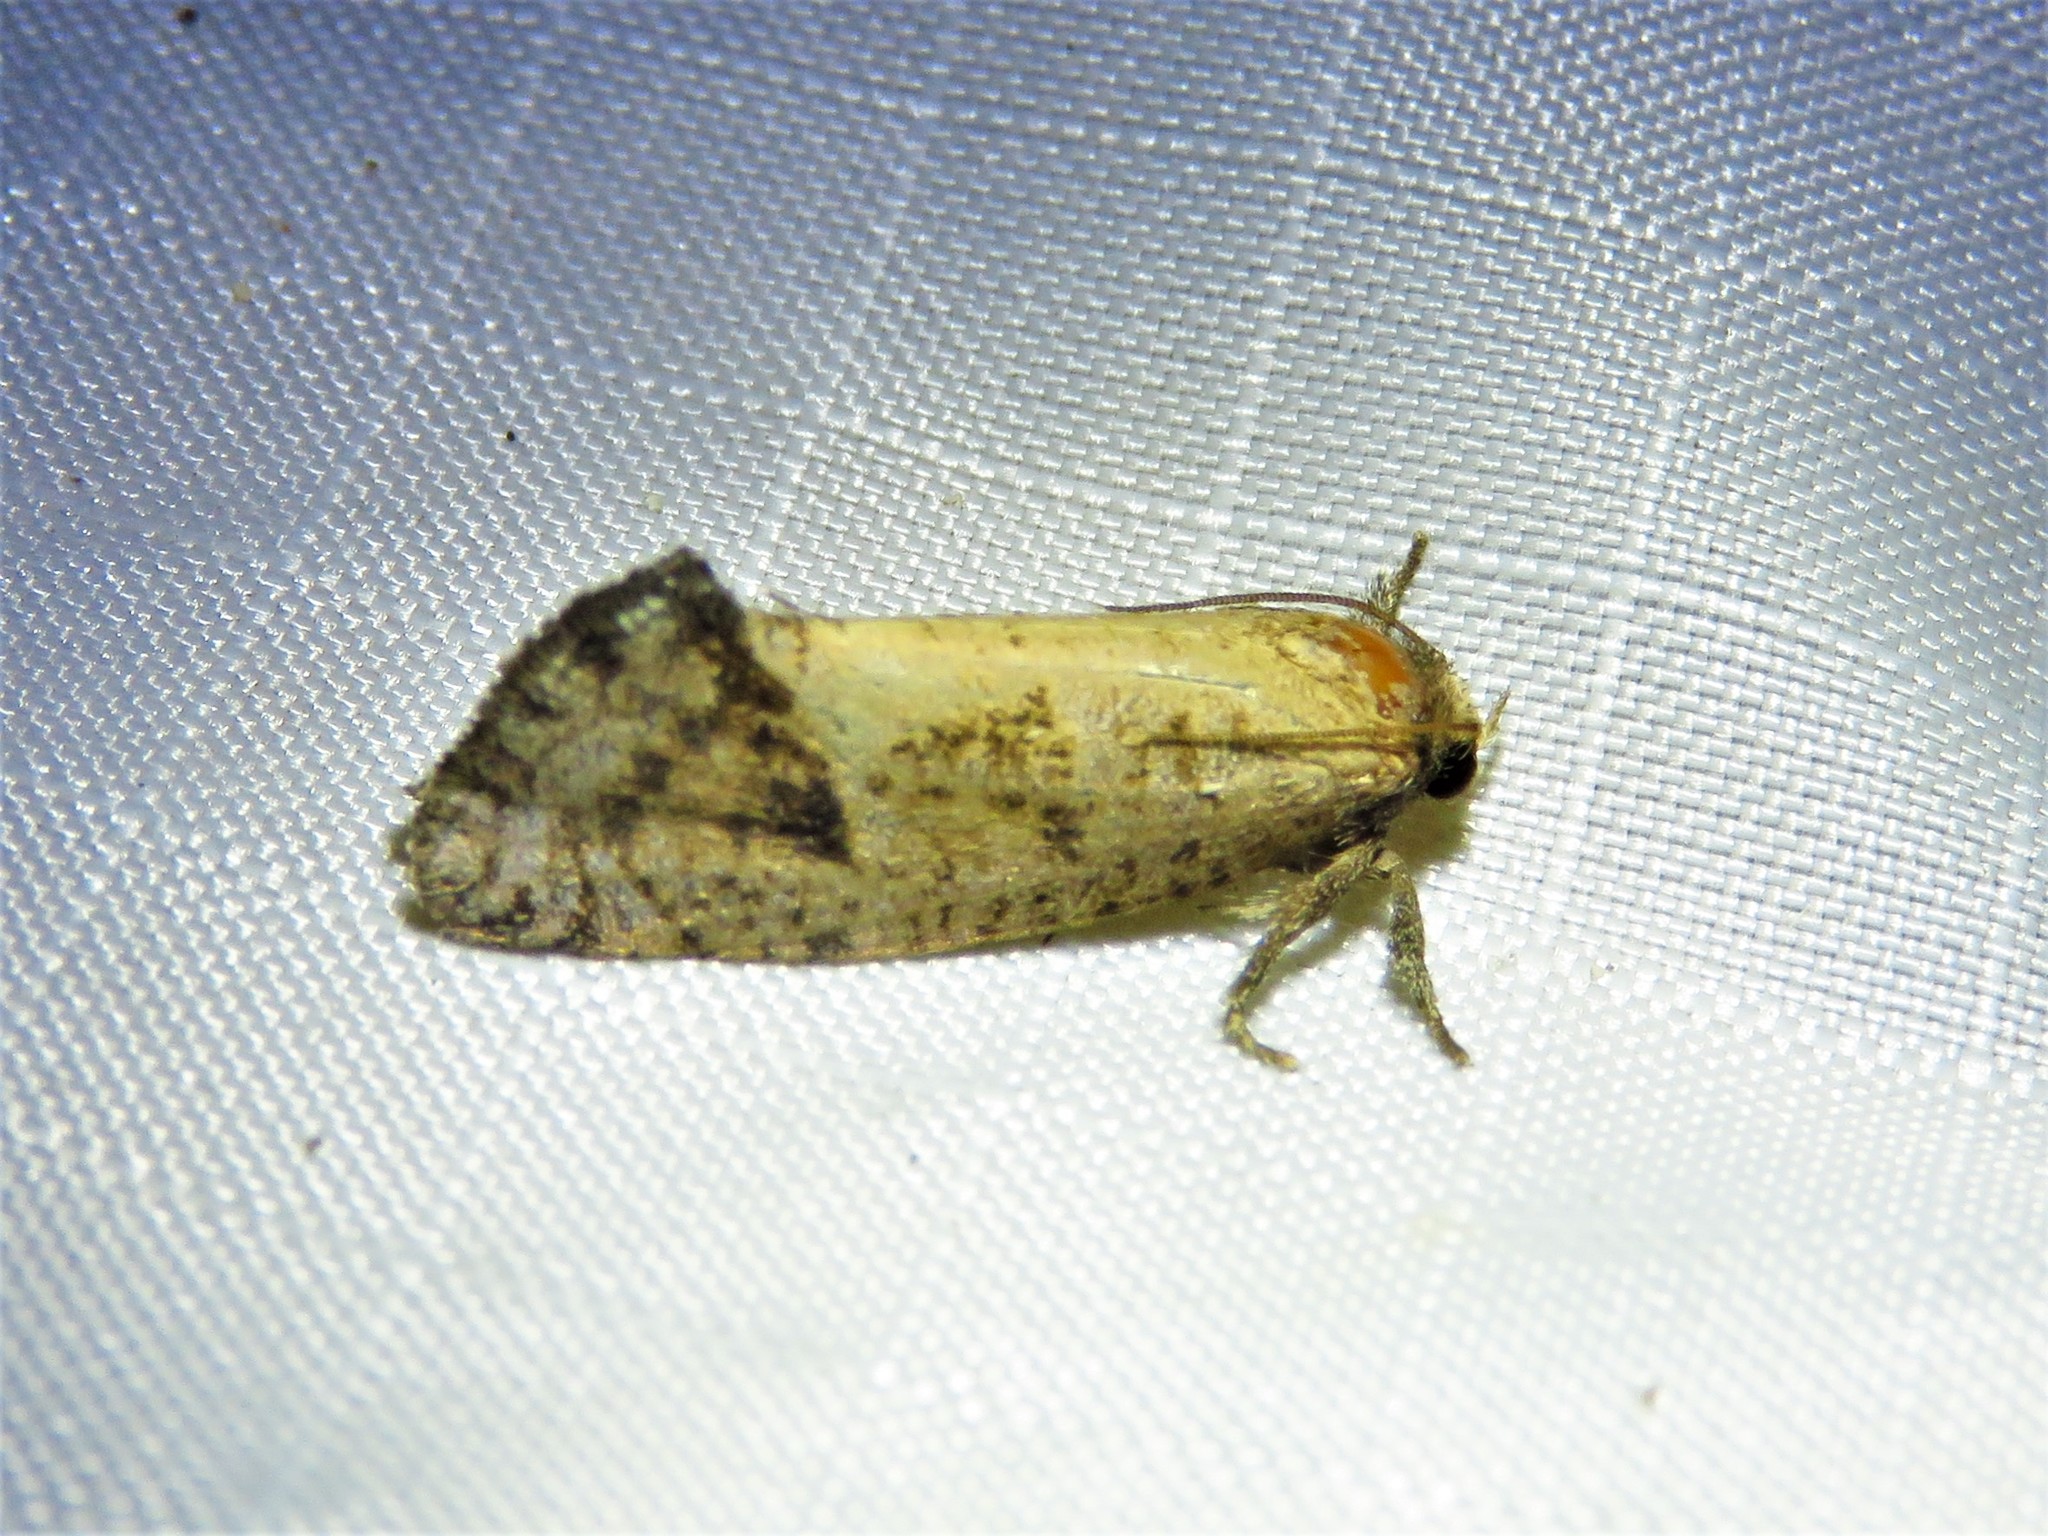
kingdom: Animalia
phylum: Arthropoda
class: Insecta
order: Lepidoptera
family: Tineidae
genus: Acrolophus
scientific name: Acrolophus texanella
